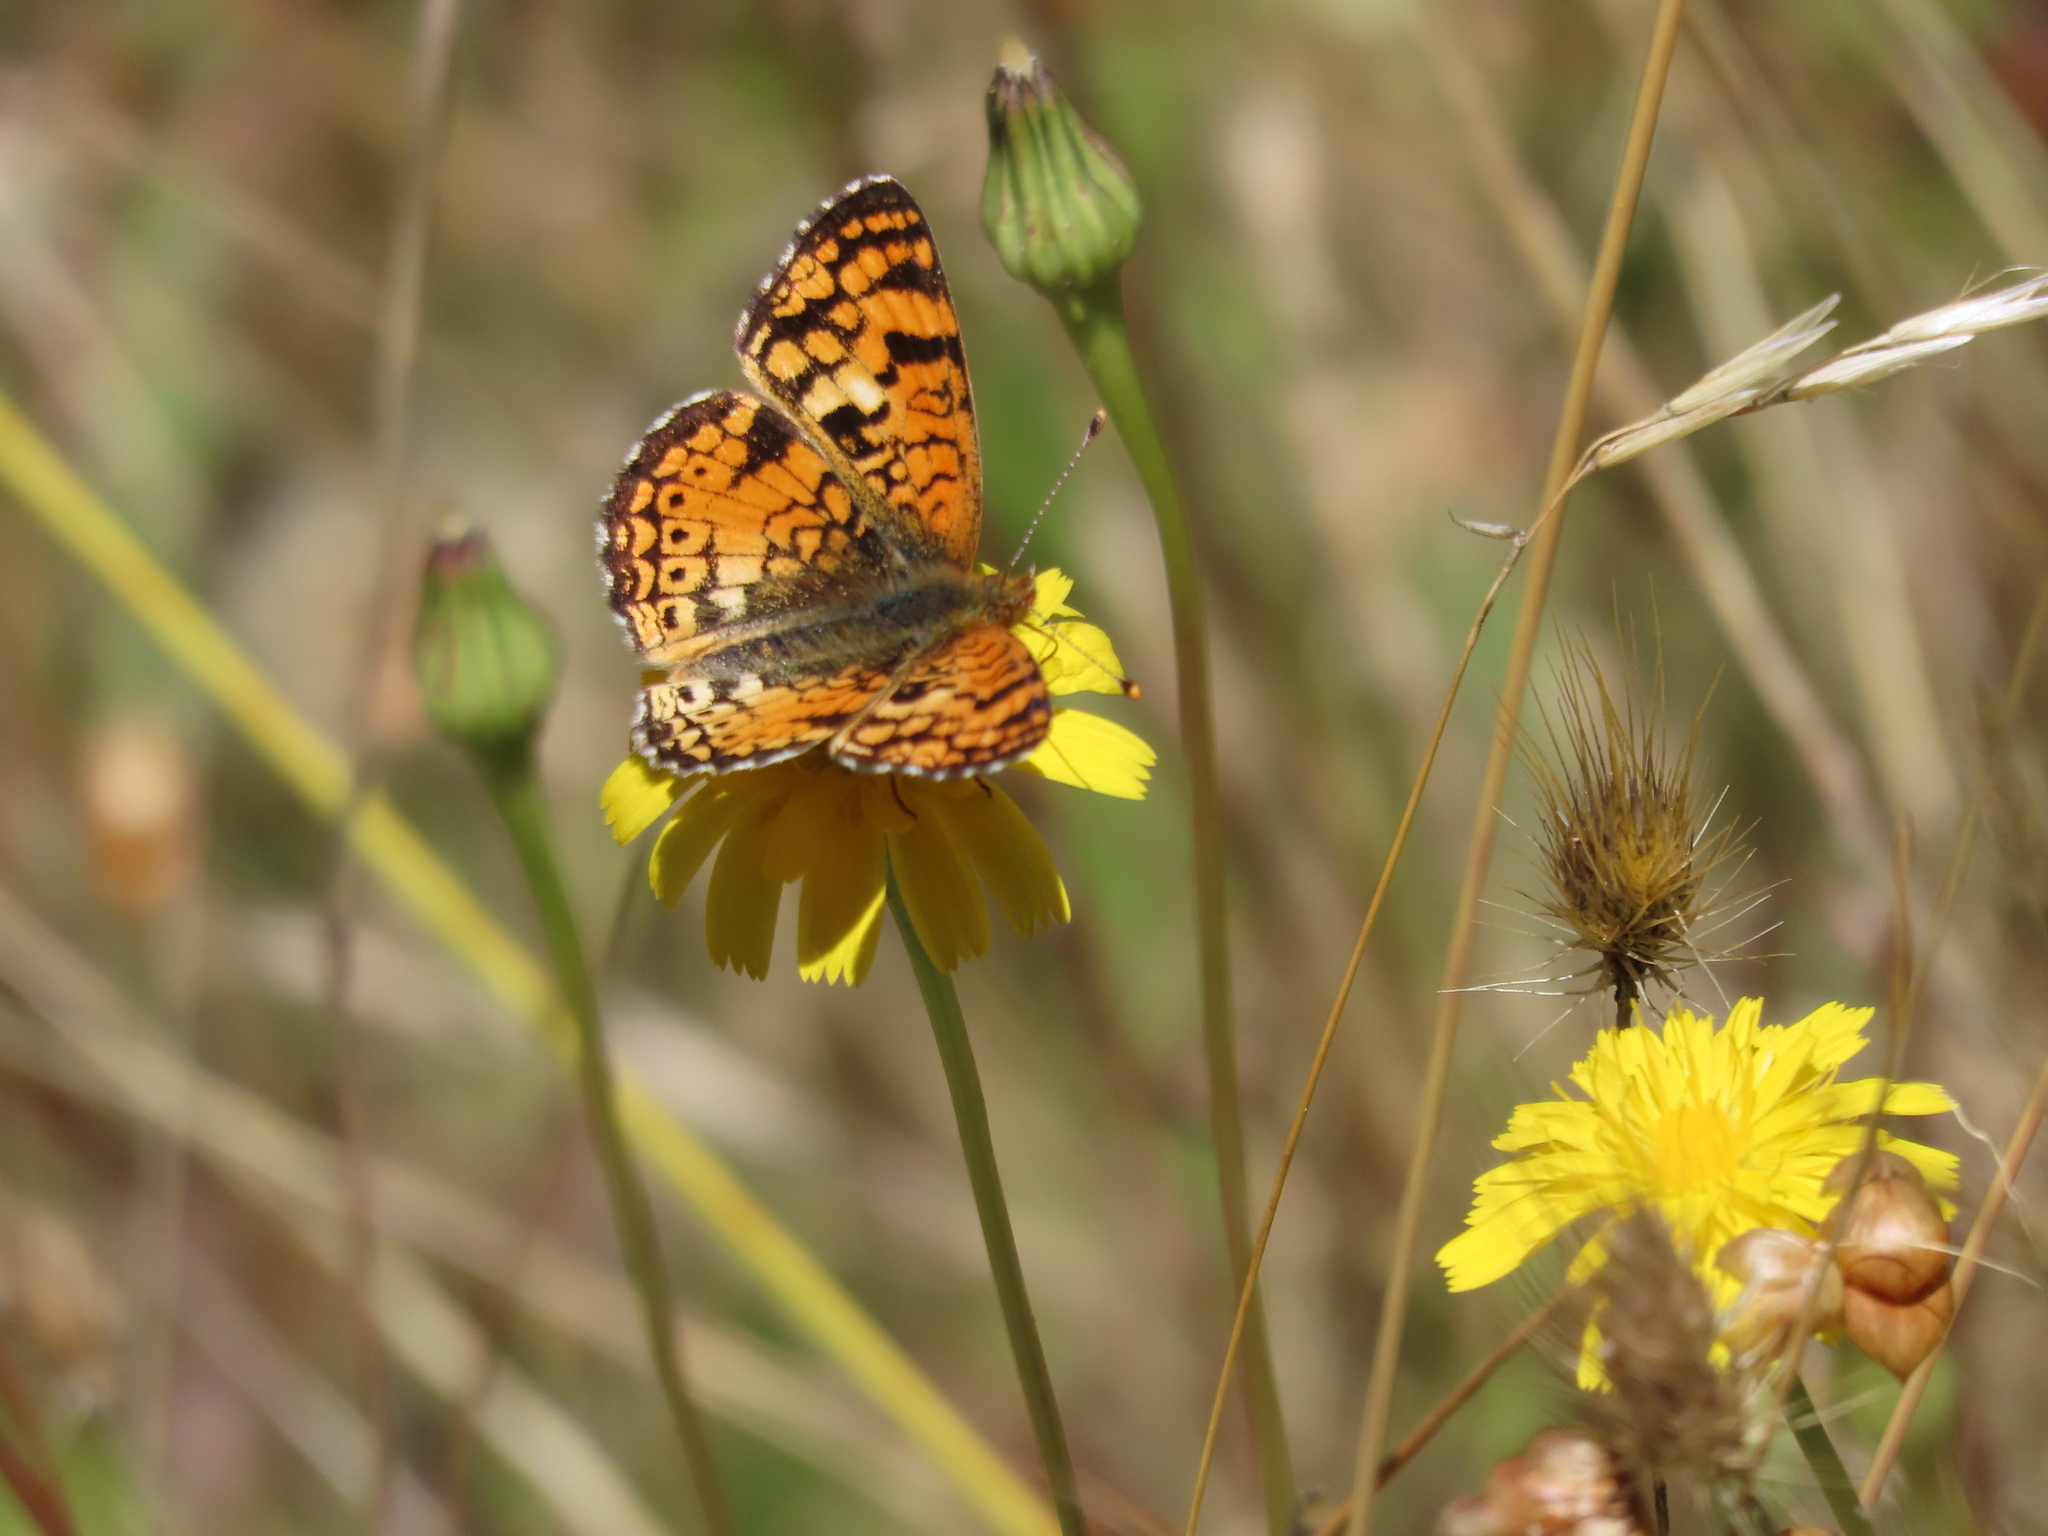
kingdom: Animalia
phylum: Arthropoda
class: Insecta
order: Lepidoptera
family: Nymphalidae
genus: Eresia
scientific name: Eresia aveyrona
